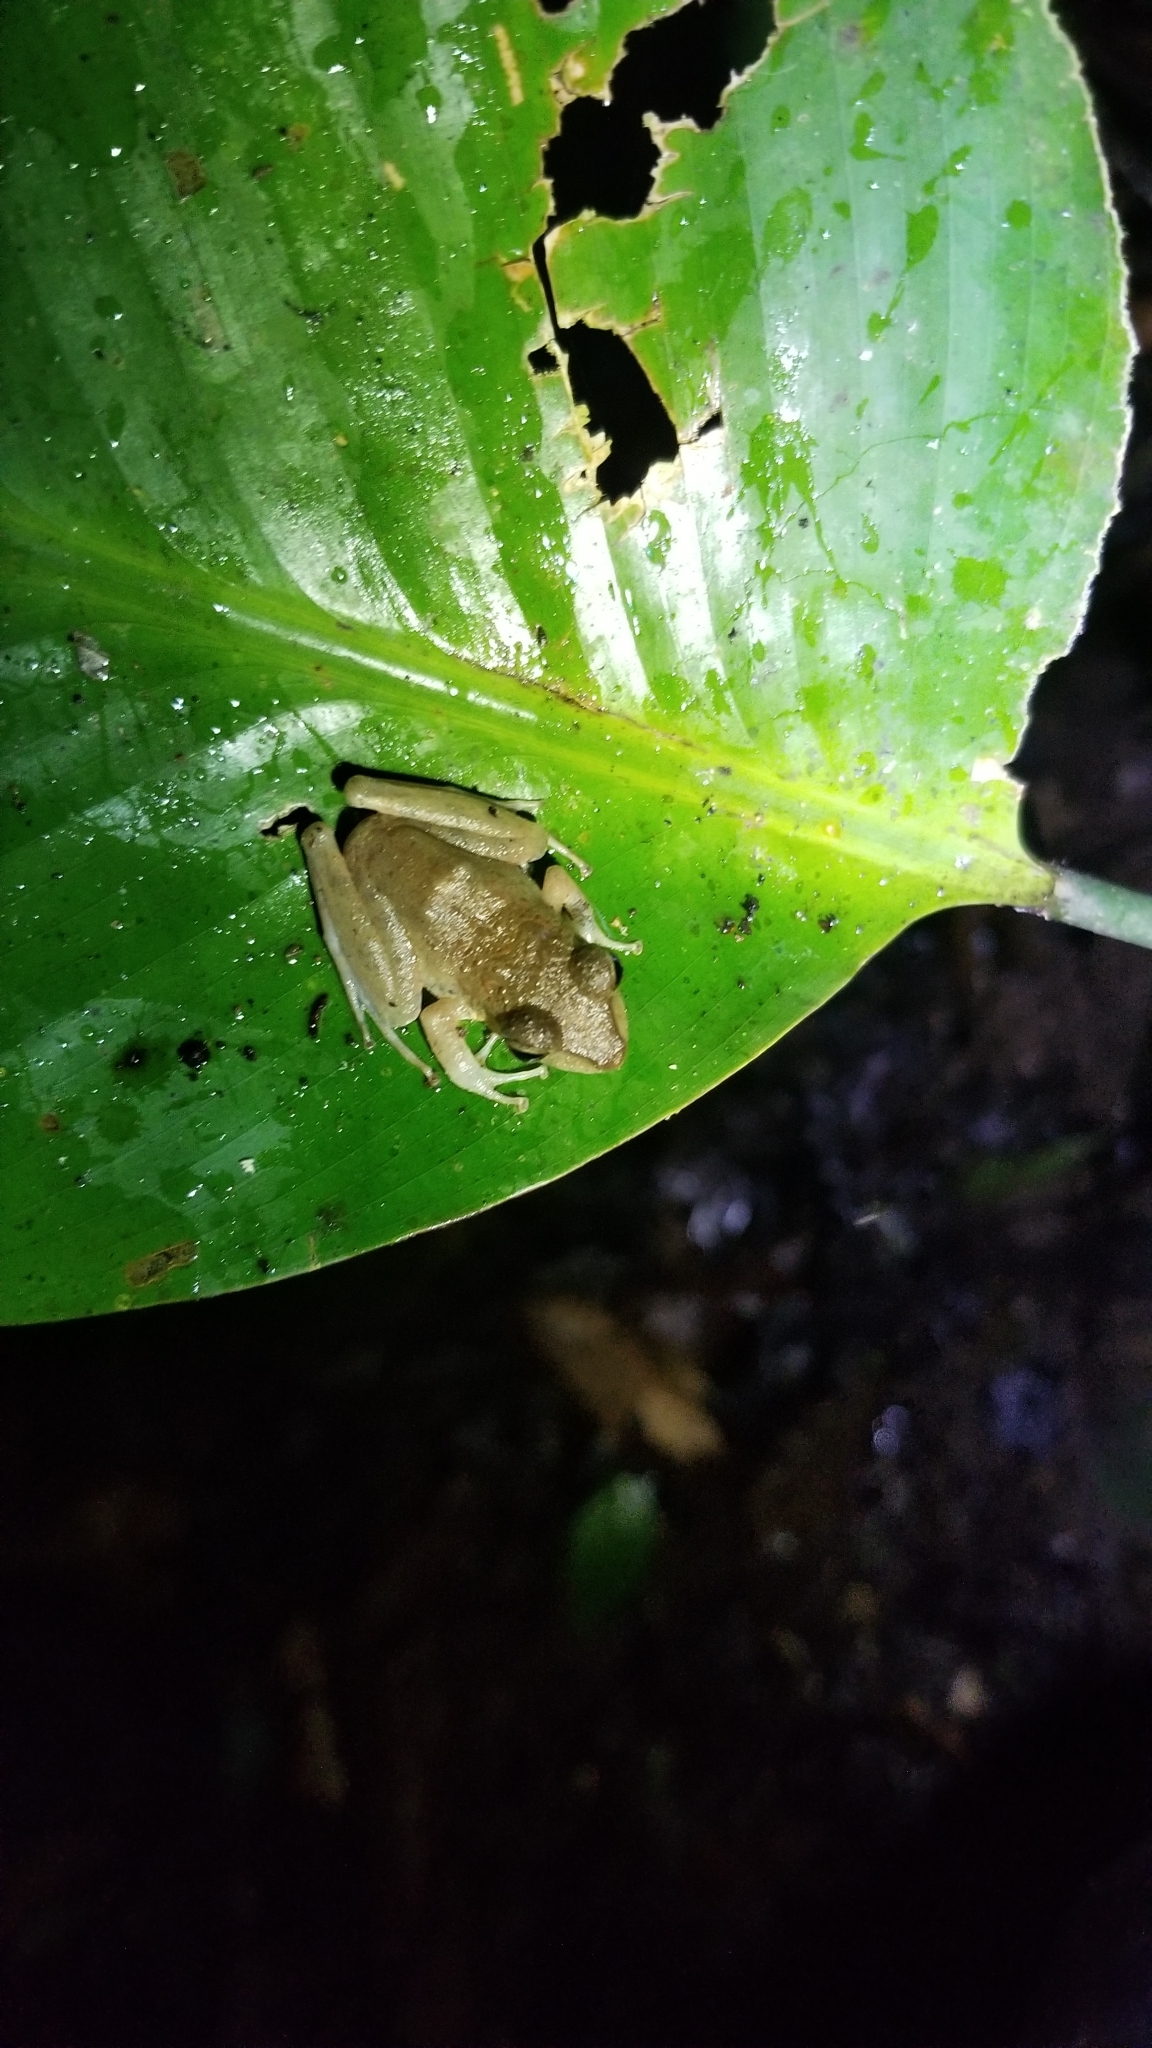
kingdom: Animalia
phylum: Chordata
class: Amphibia
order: Anura
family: Craugastoridae
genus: Craugastor
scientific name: Craugastor
